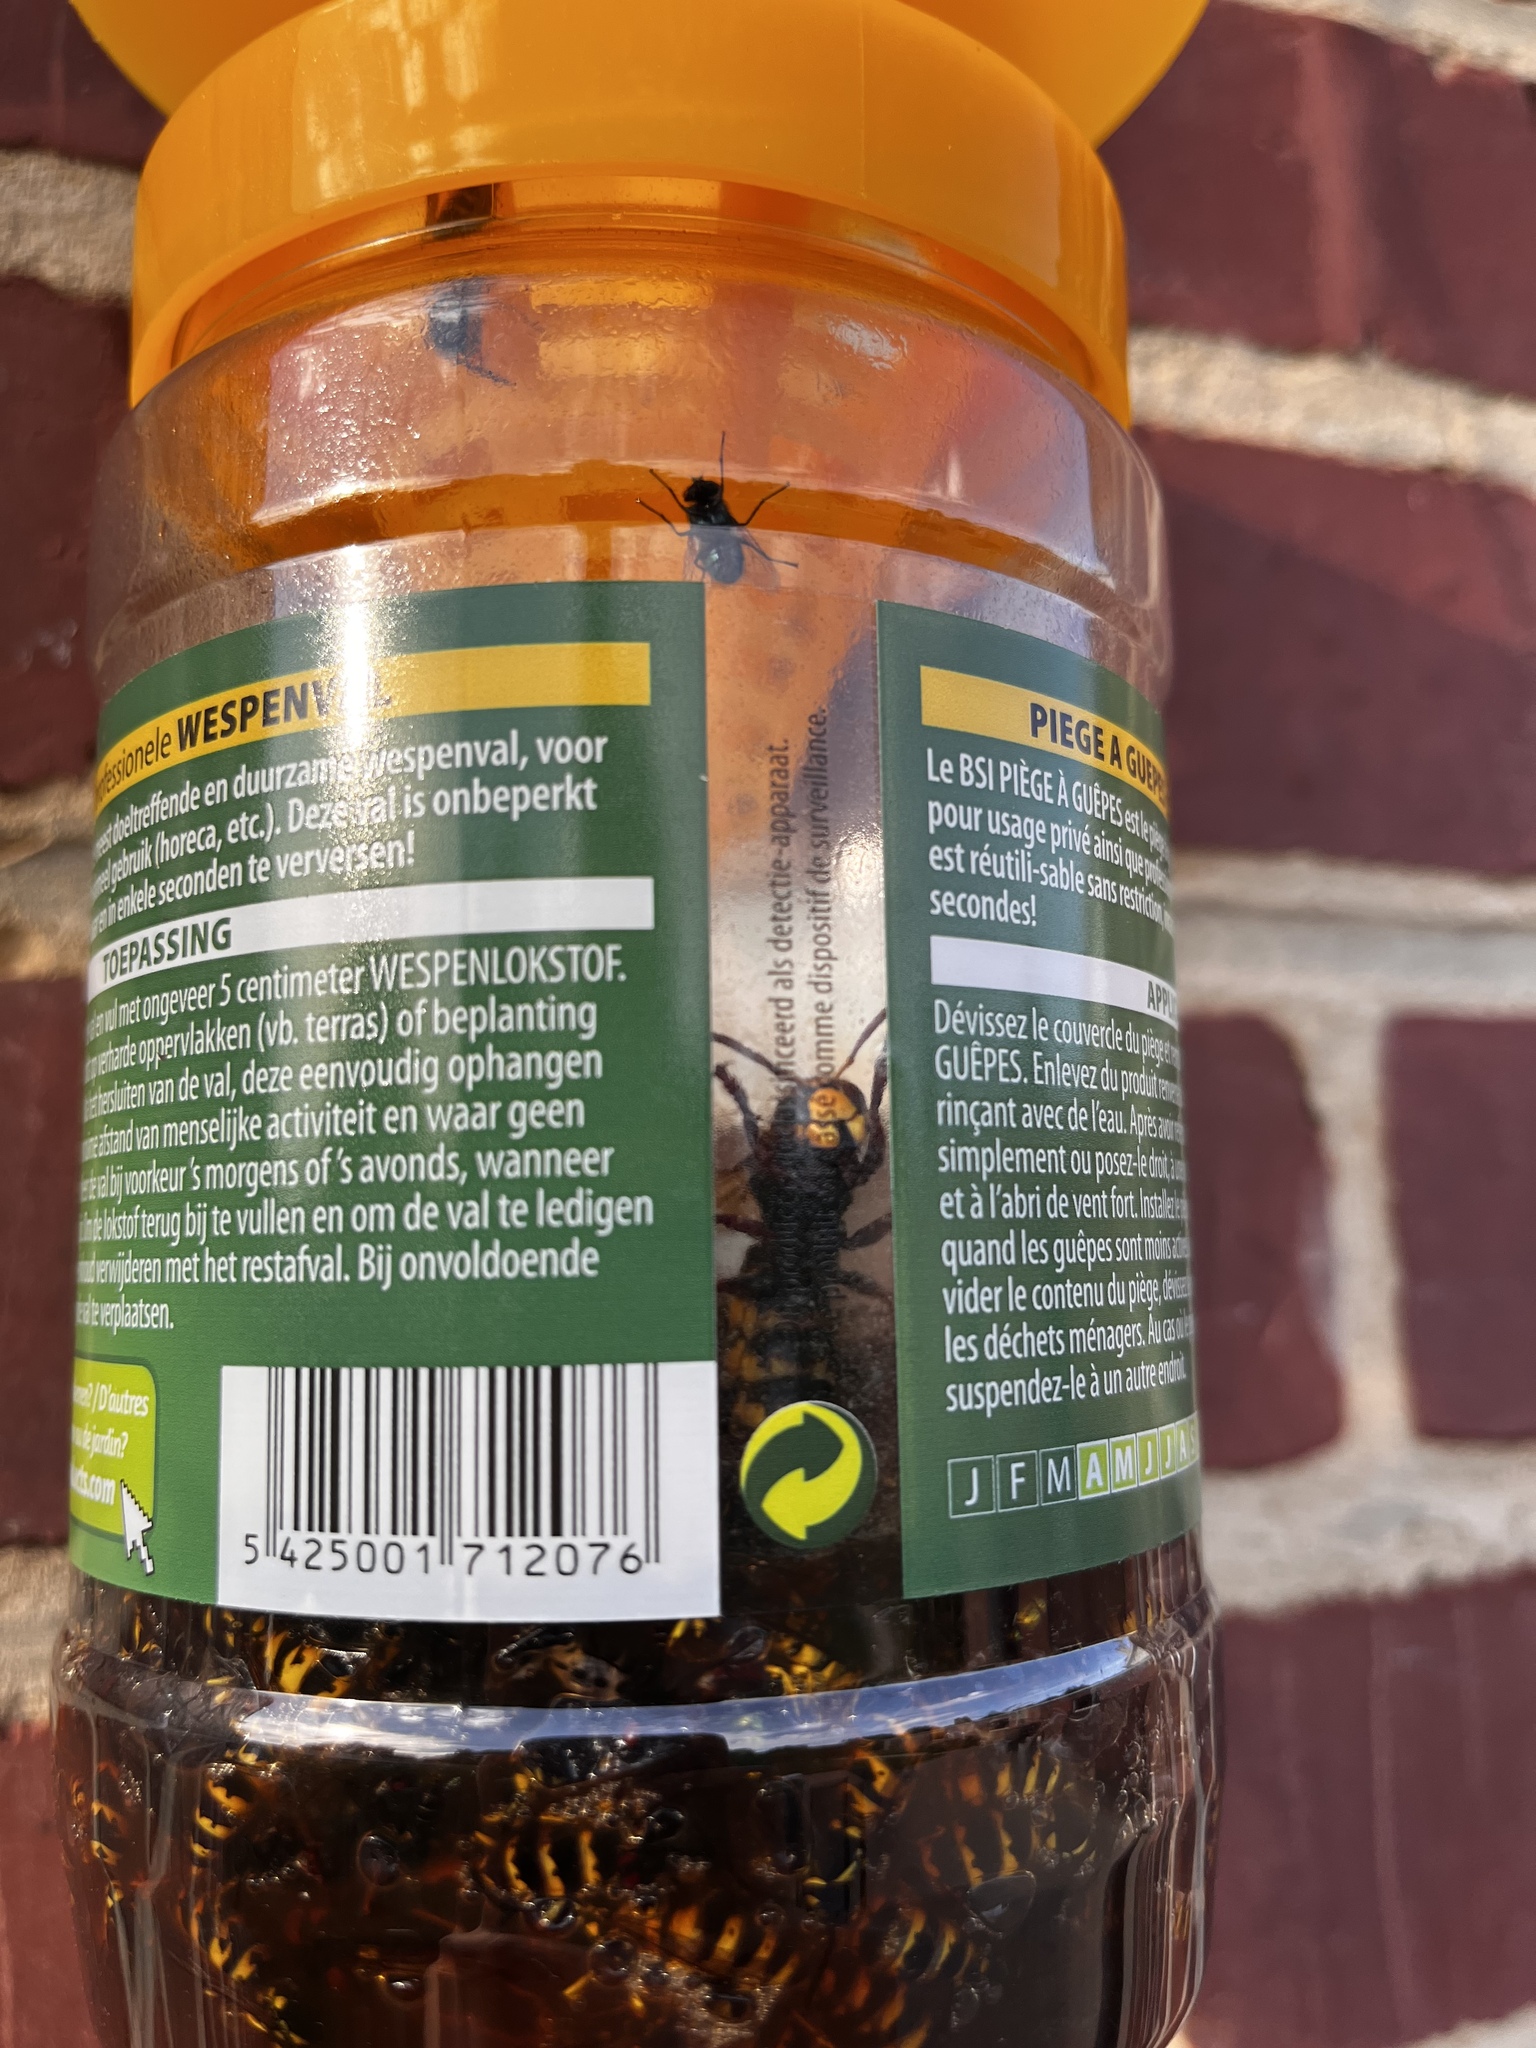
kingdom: Animalia
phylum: Arthropoda
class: Insecta
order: Hymenoptera
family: Vespidae
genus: Vespa
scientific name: Vespa crabro
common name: Hornet
